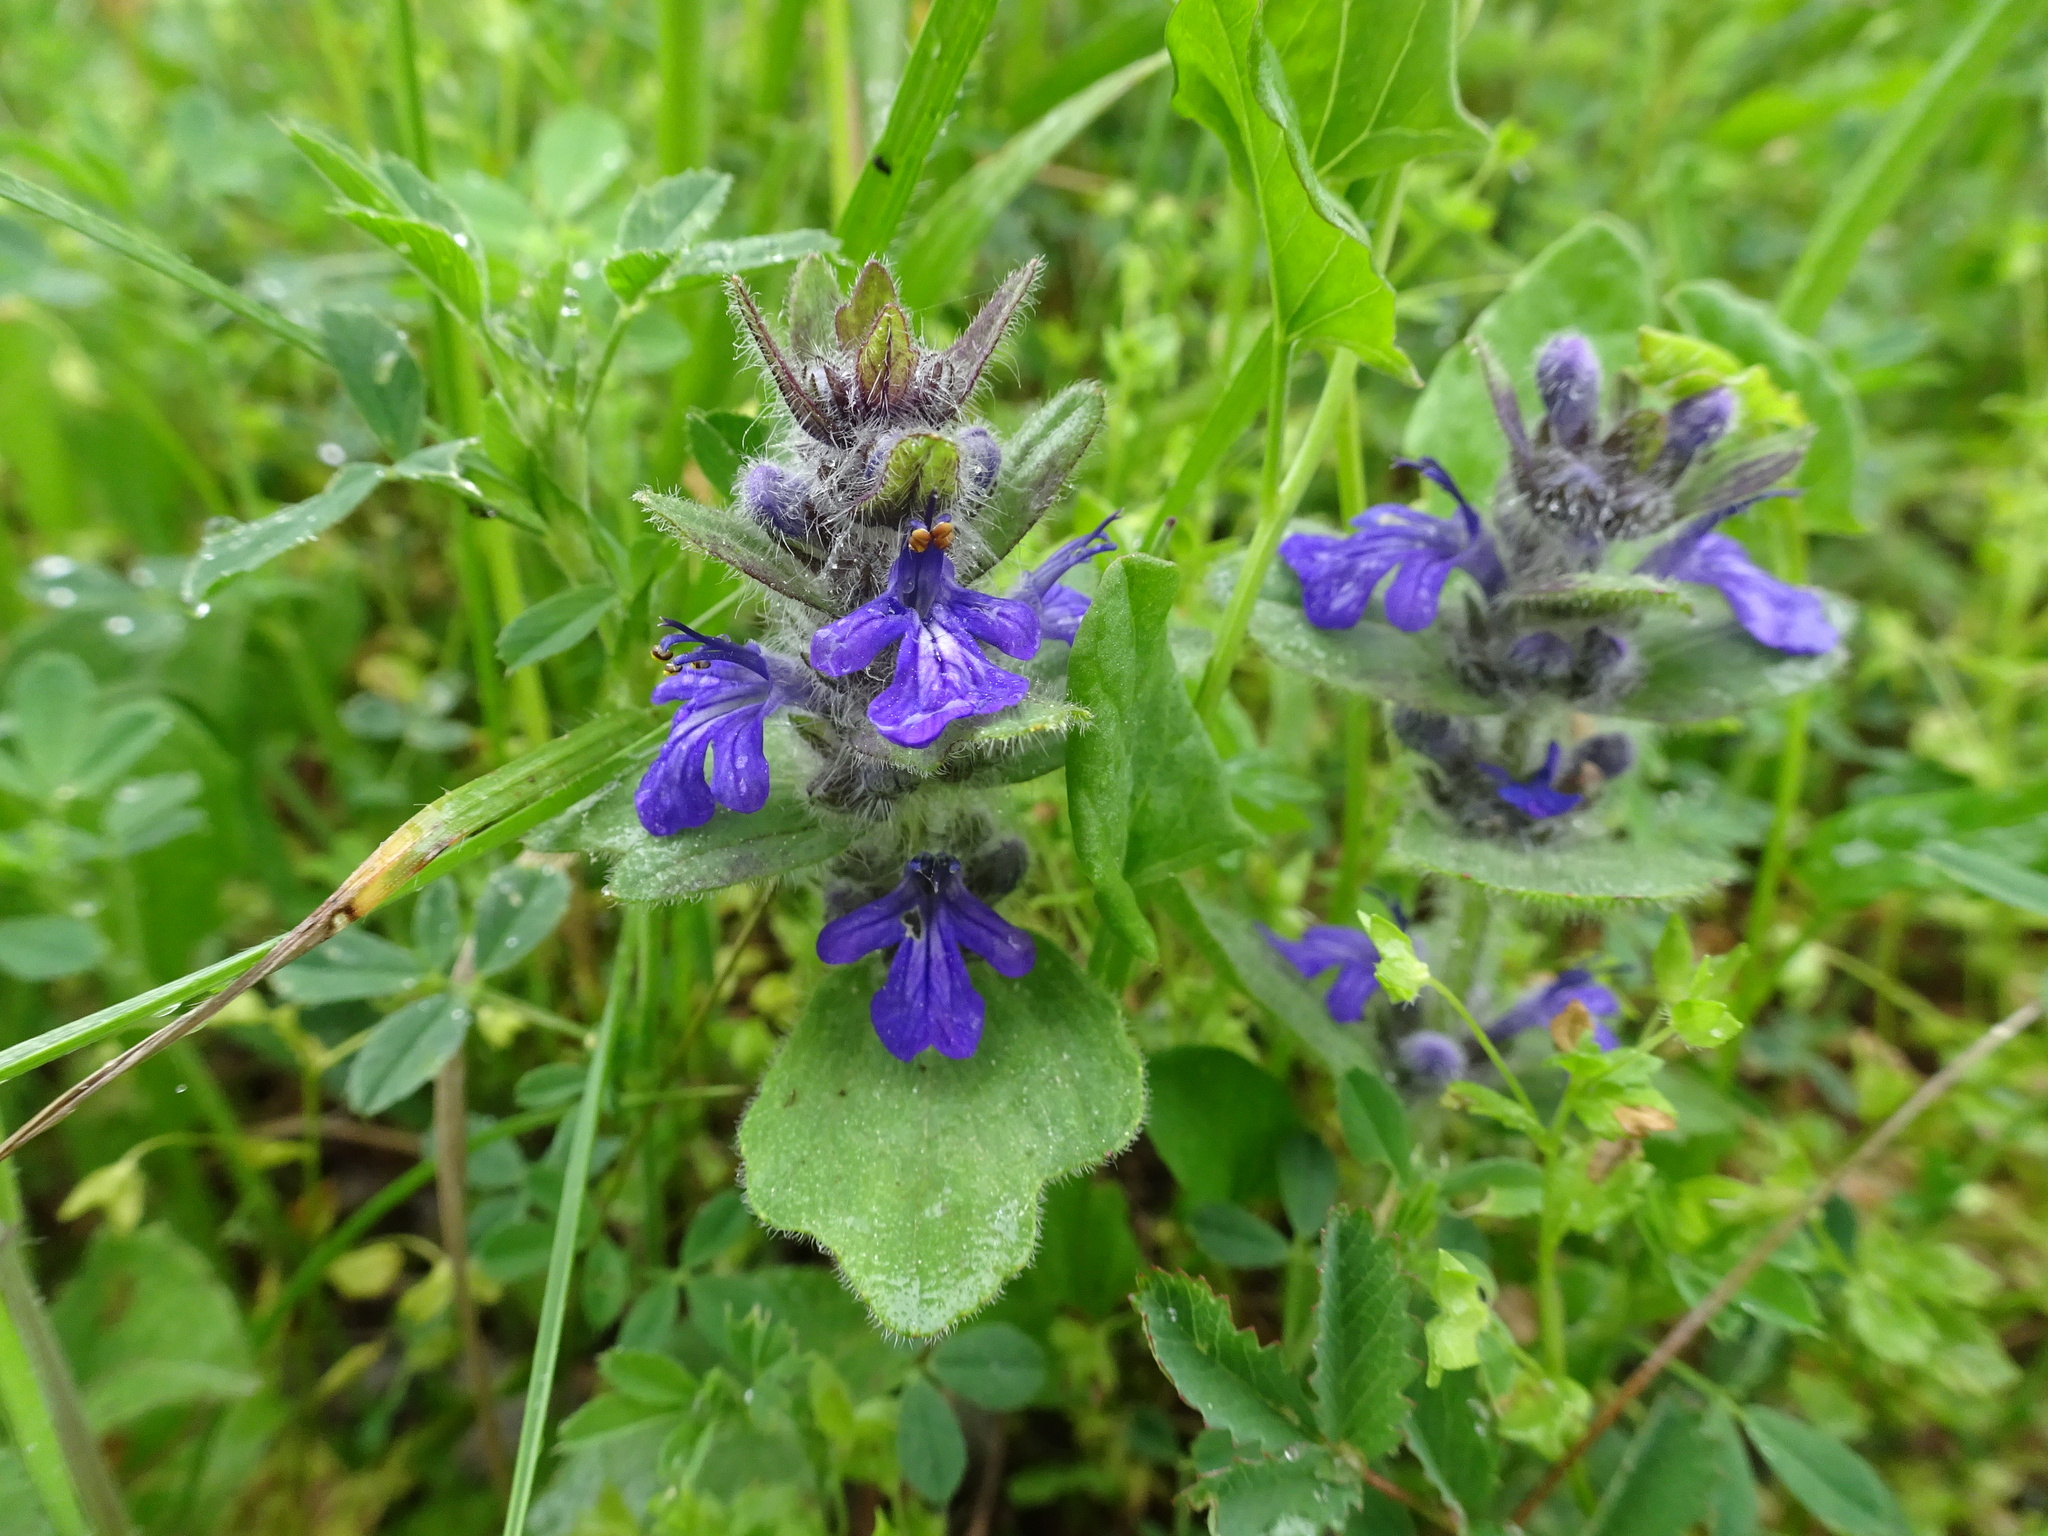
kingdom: Plantae
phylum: Tracheophyta
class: Magnoliopsida
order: Lamiales
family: Lamiaceae
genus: Ajuga
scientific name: Ajuga genevensis
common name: Blue bugle
